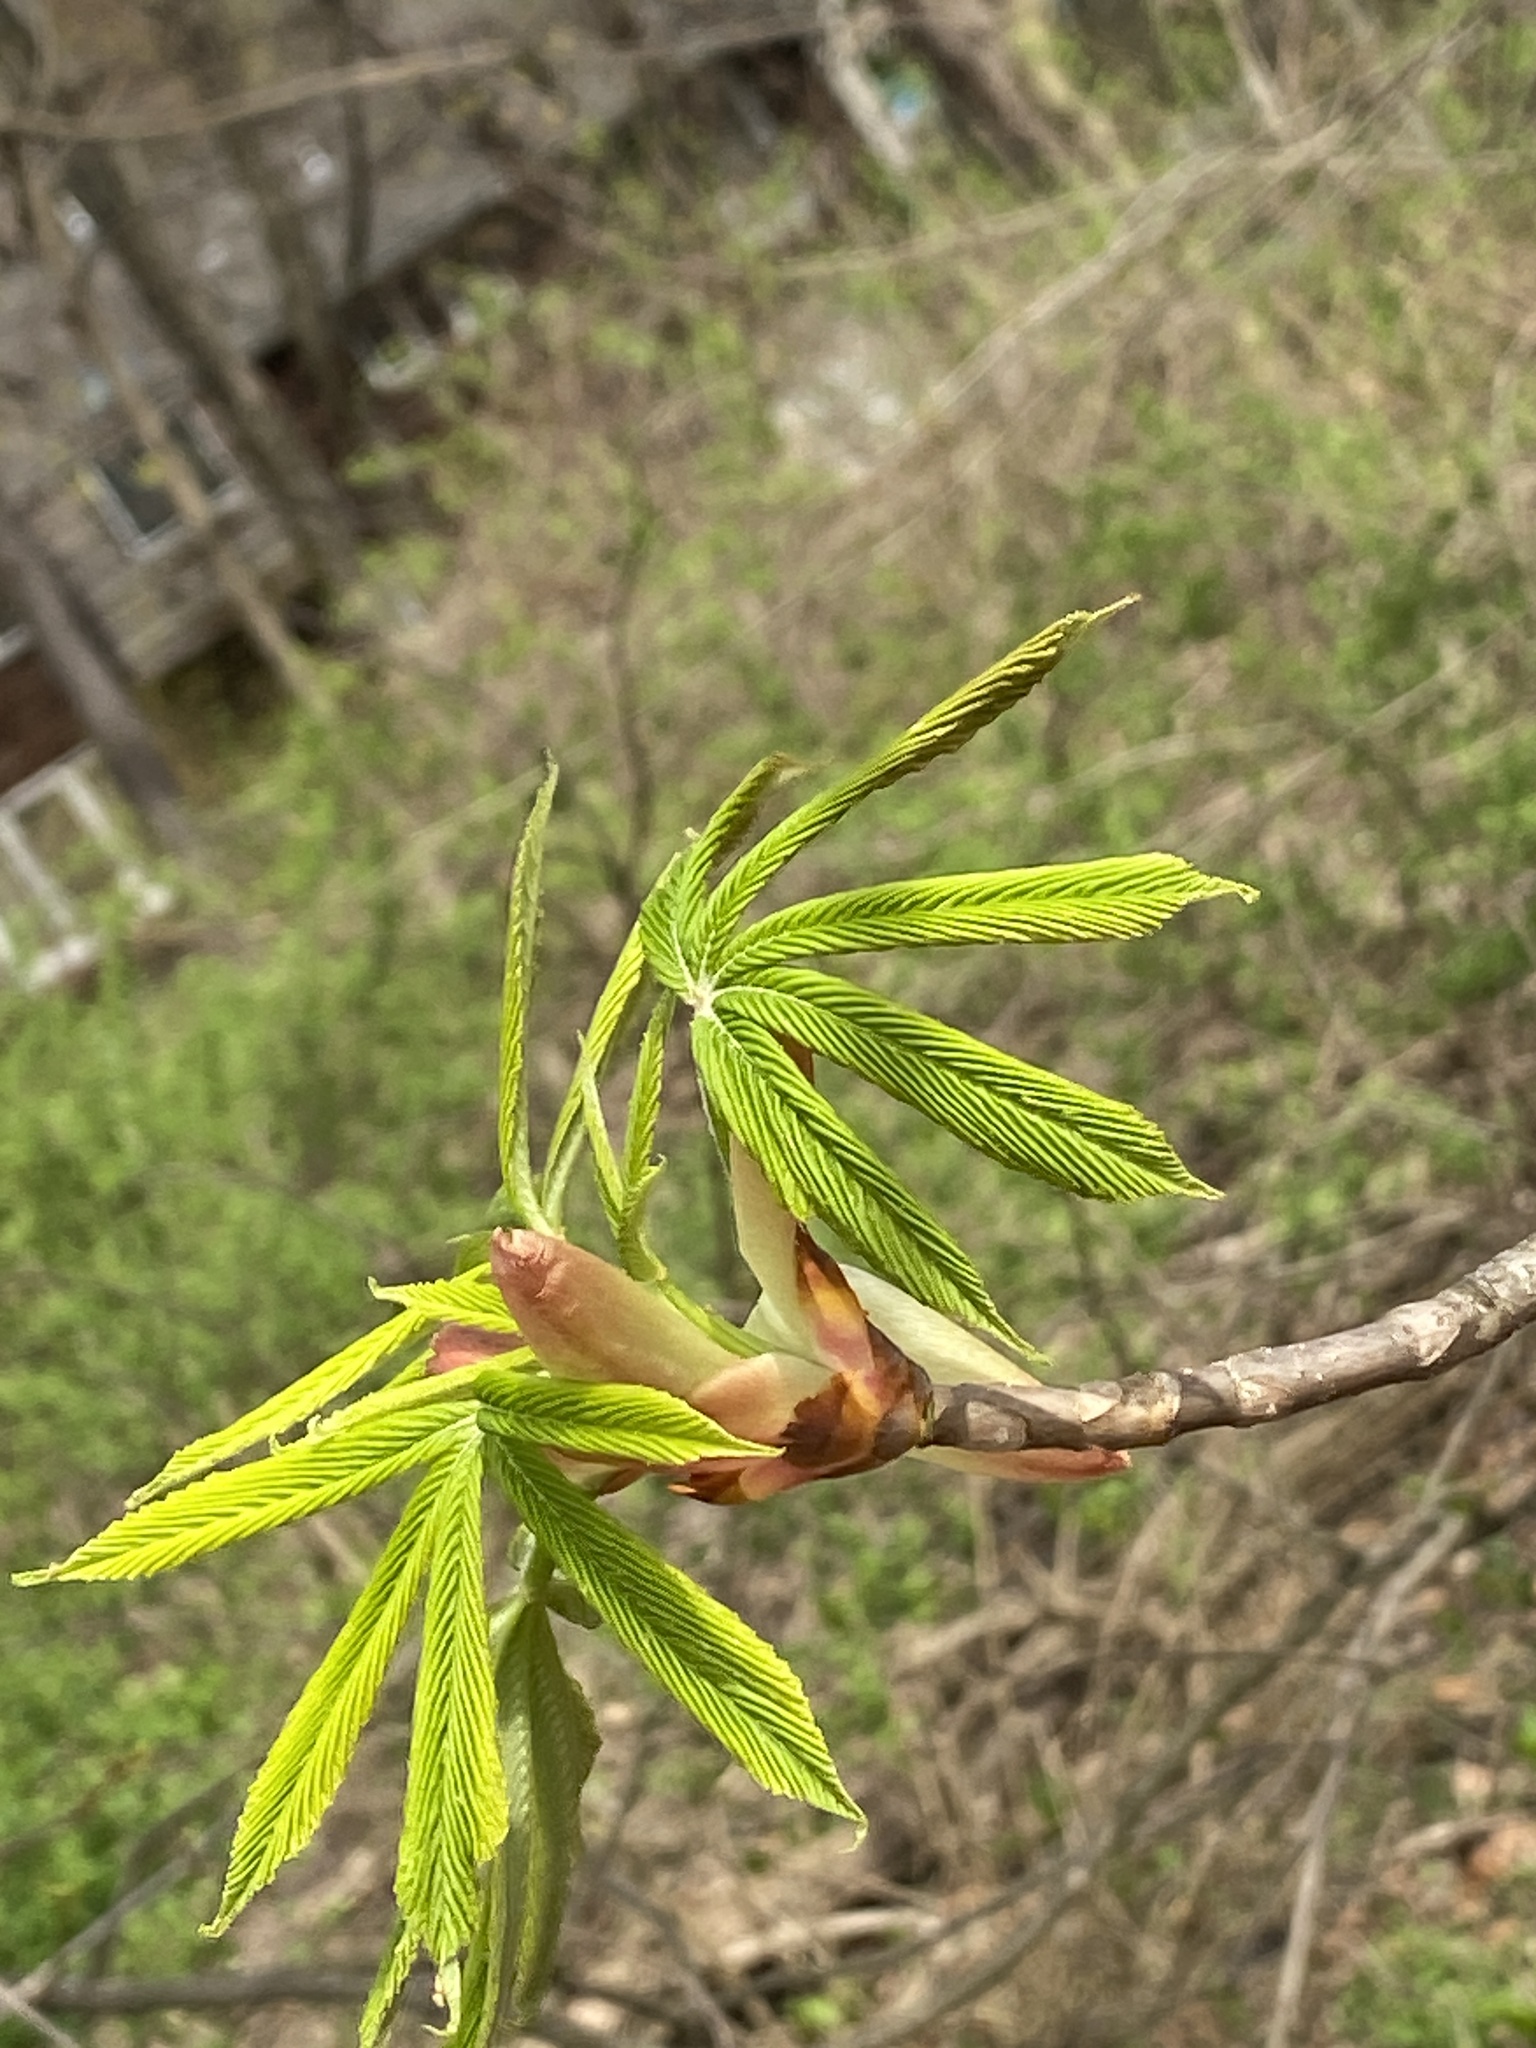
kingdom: Plantae
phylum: Tracheophyta
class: Magnoliopsida
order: Sapindales
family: Sapindaceae
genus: Aesculus
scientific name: Aesculus flava
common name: Yellow buckeye
